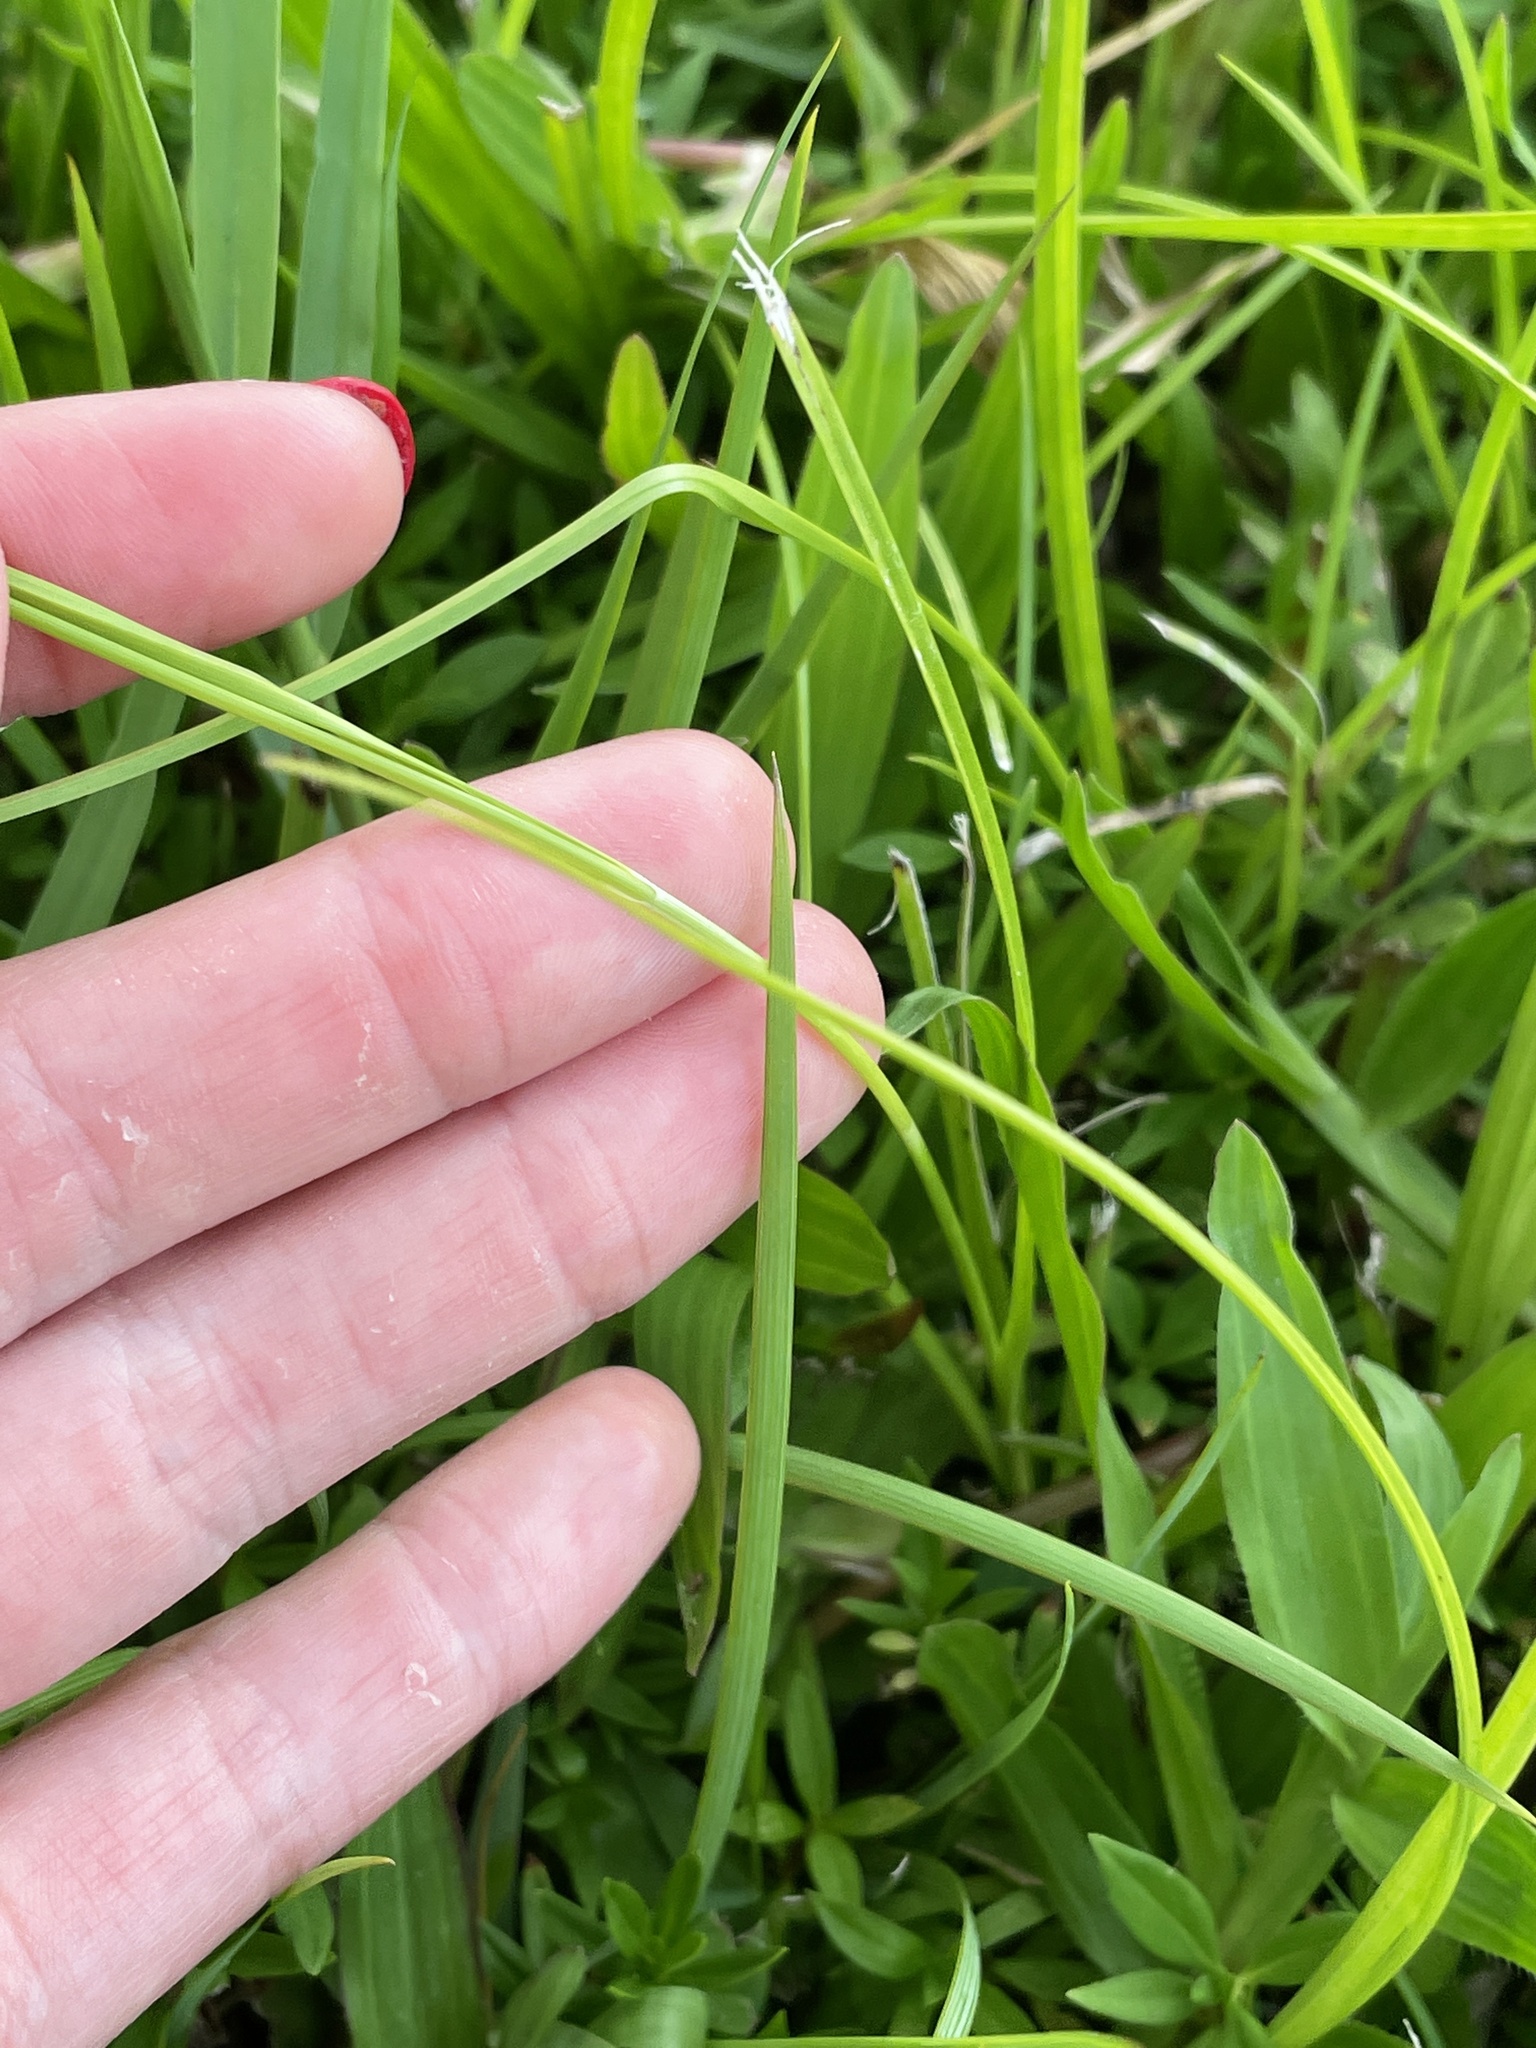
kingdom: Plantae
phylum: Tracheophyta
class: Liliopsida
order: Poales
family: Cyperaceae
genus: Rhynchospora
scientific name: Rhynchospora colorata
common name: Star sedge
